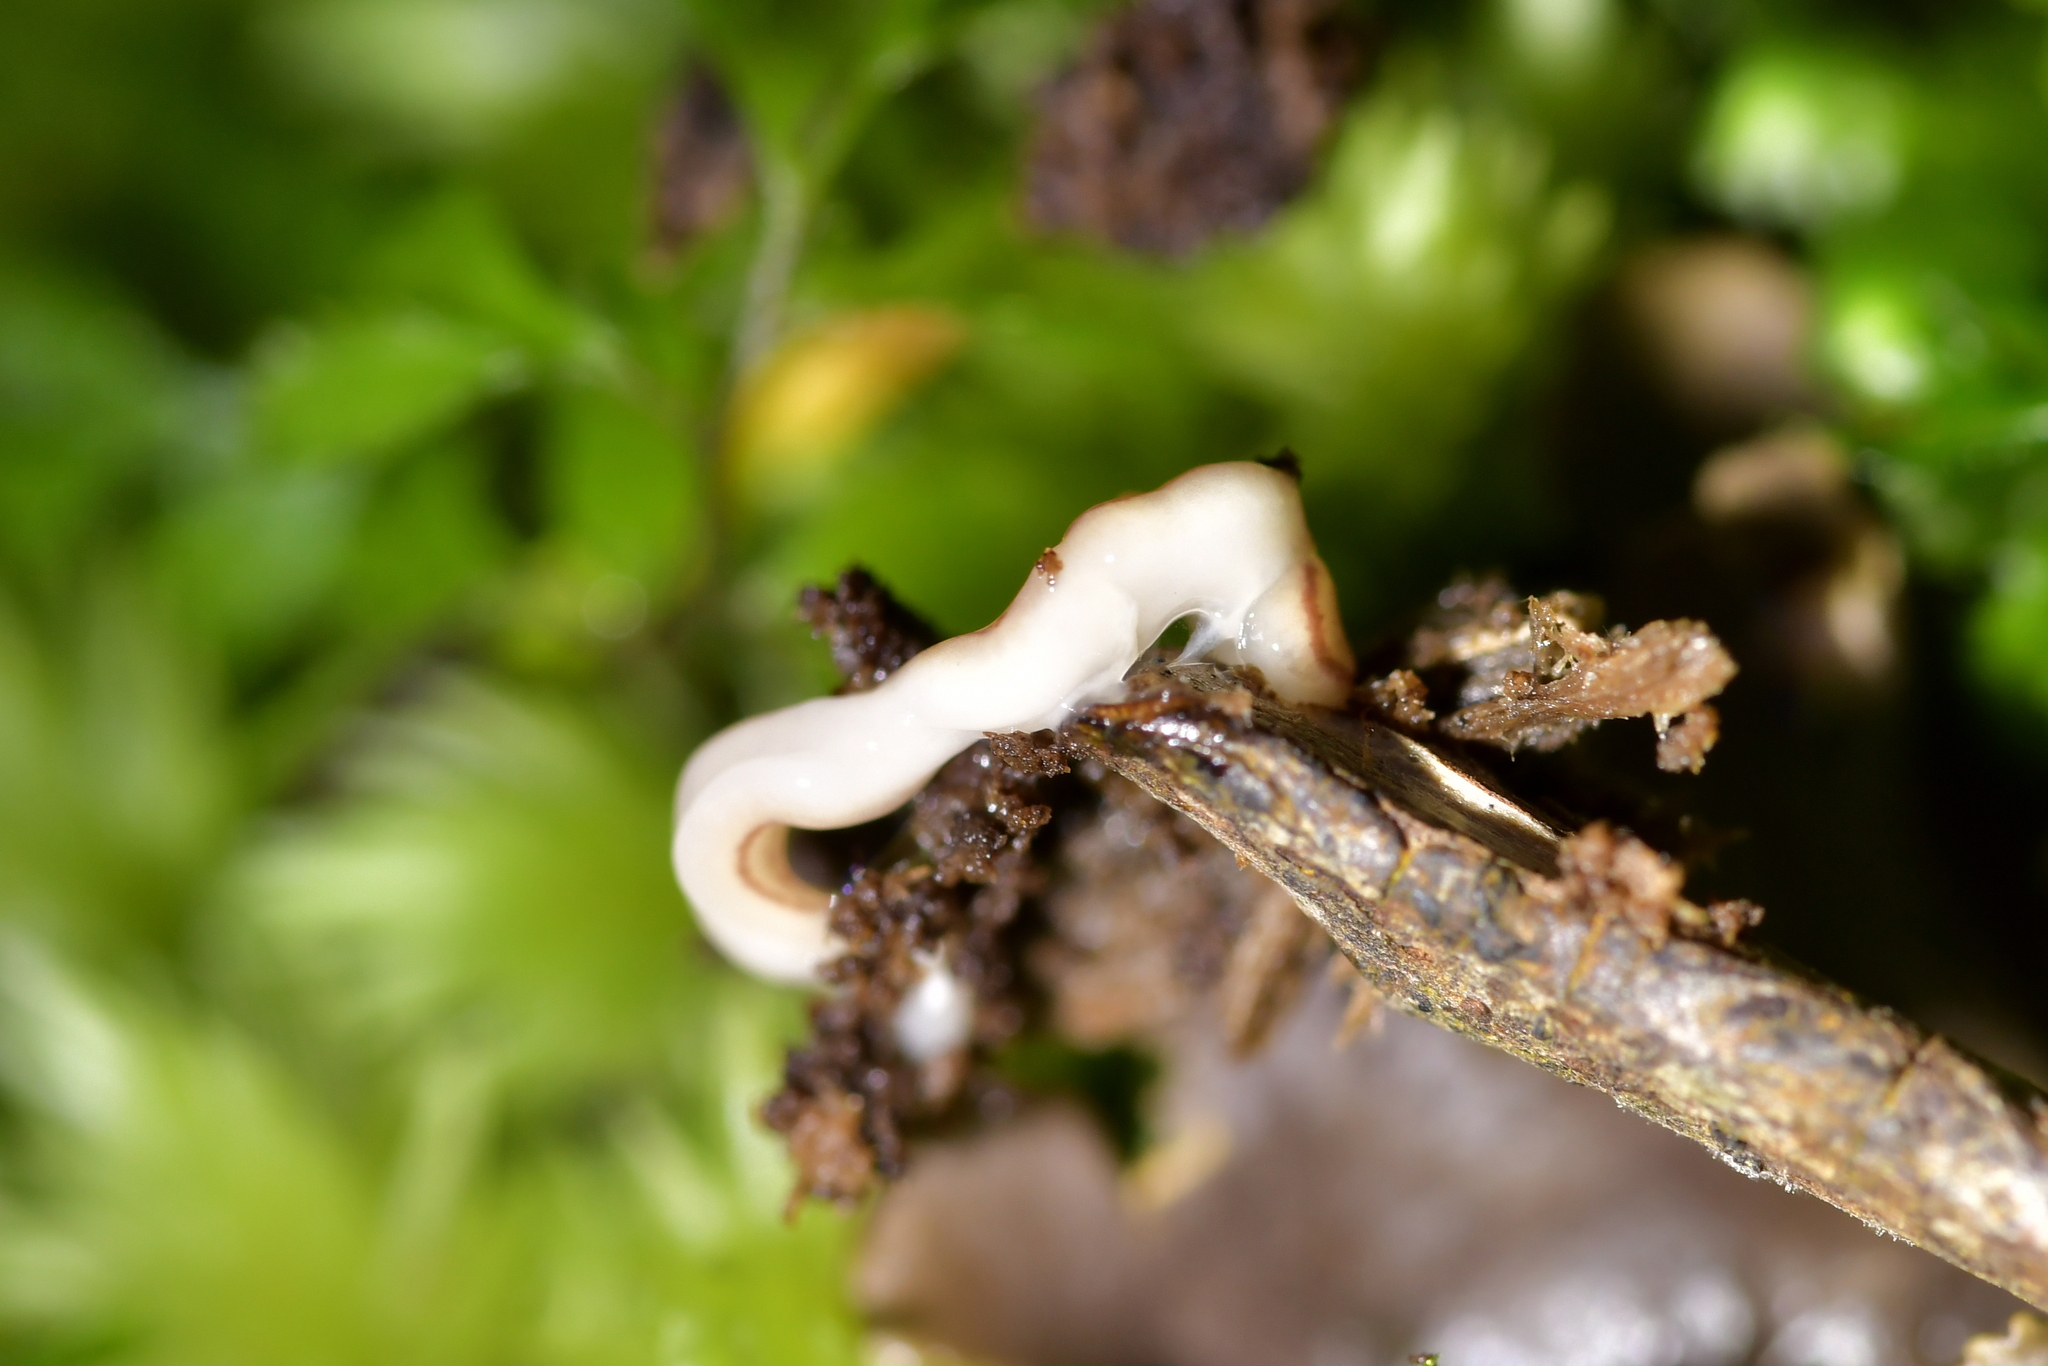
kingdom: Animalia
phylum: Platyhelminthes
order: Tricladida
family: Geoplanidae
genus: Artioposthia
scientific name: Artioposthia howesi
